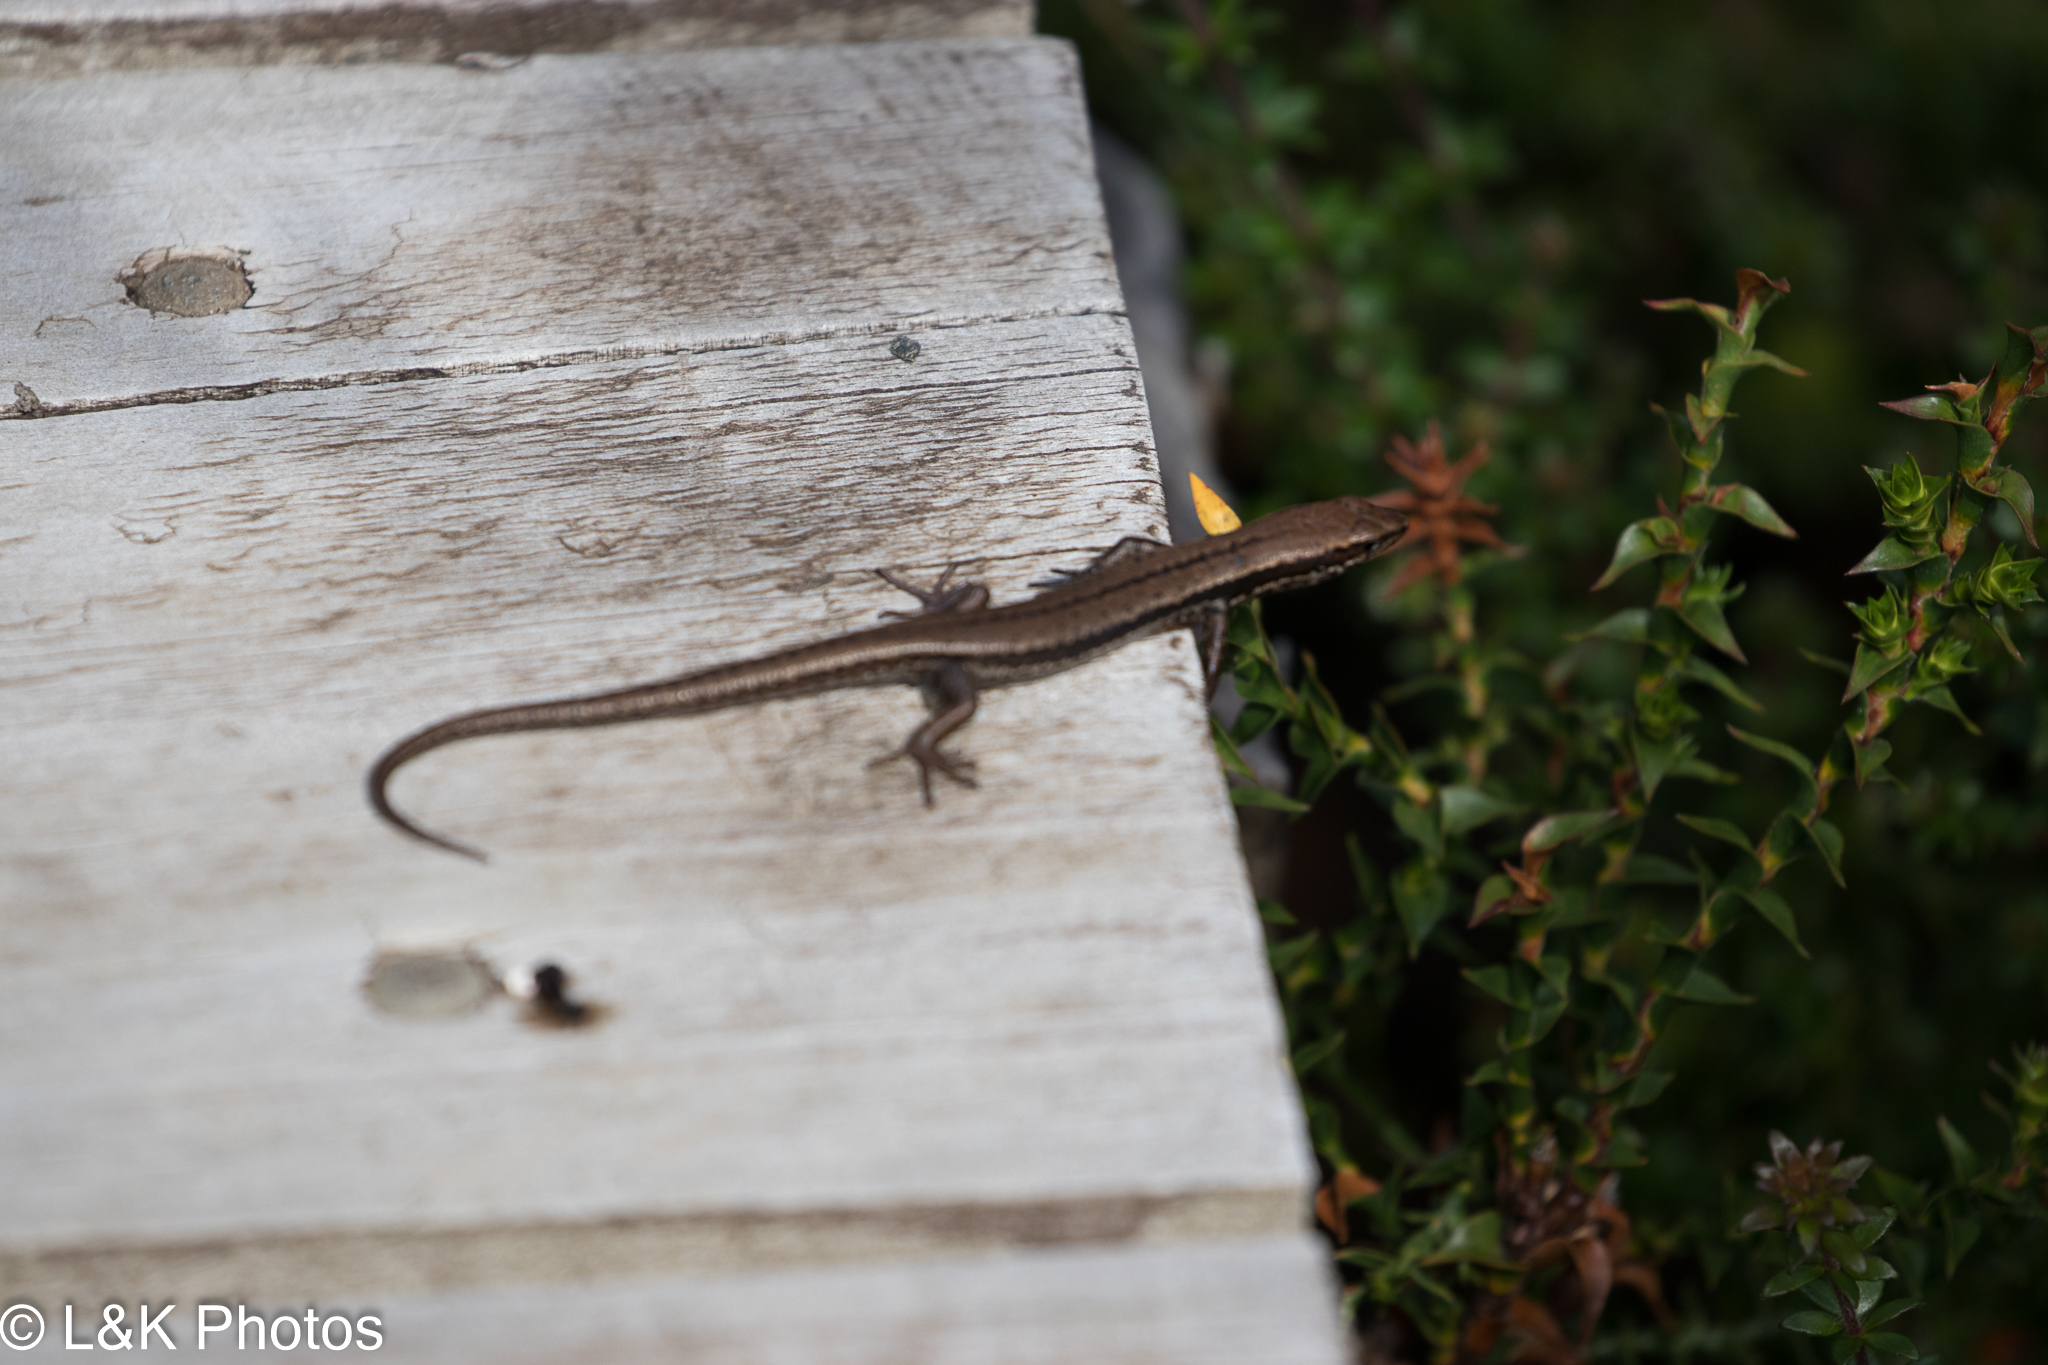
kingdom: Animalia
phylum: Chordata
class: Squamata
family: Scincidae
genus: Carinascincus
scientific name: Carinascincus metallicus
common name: Metallic cool-skink
